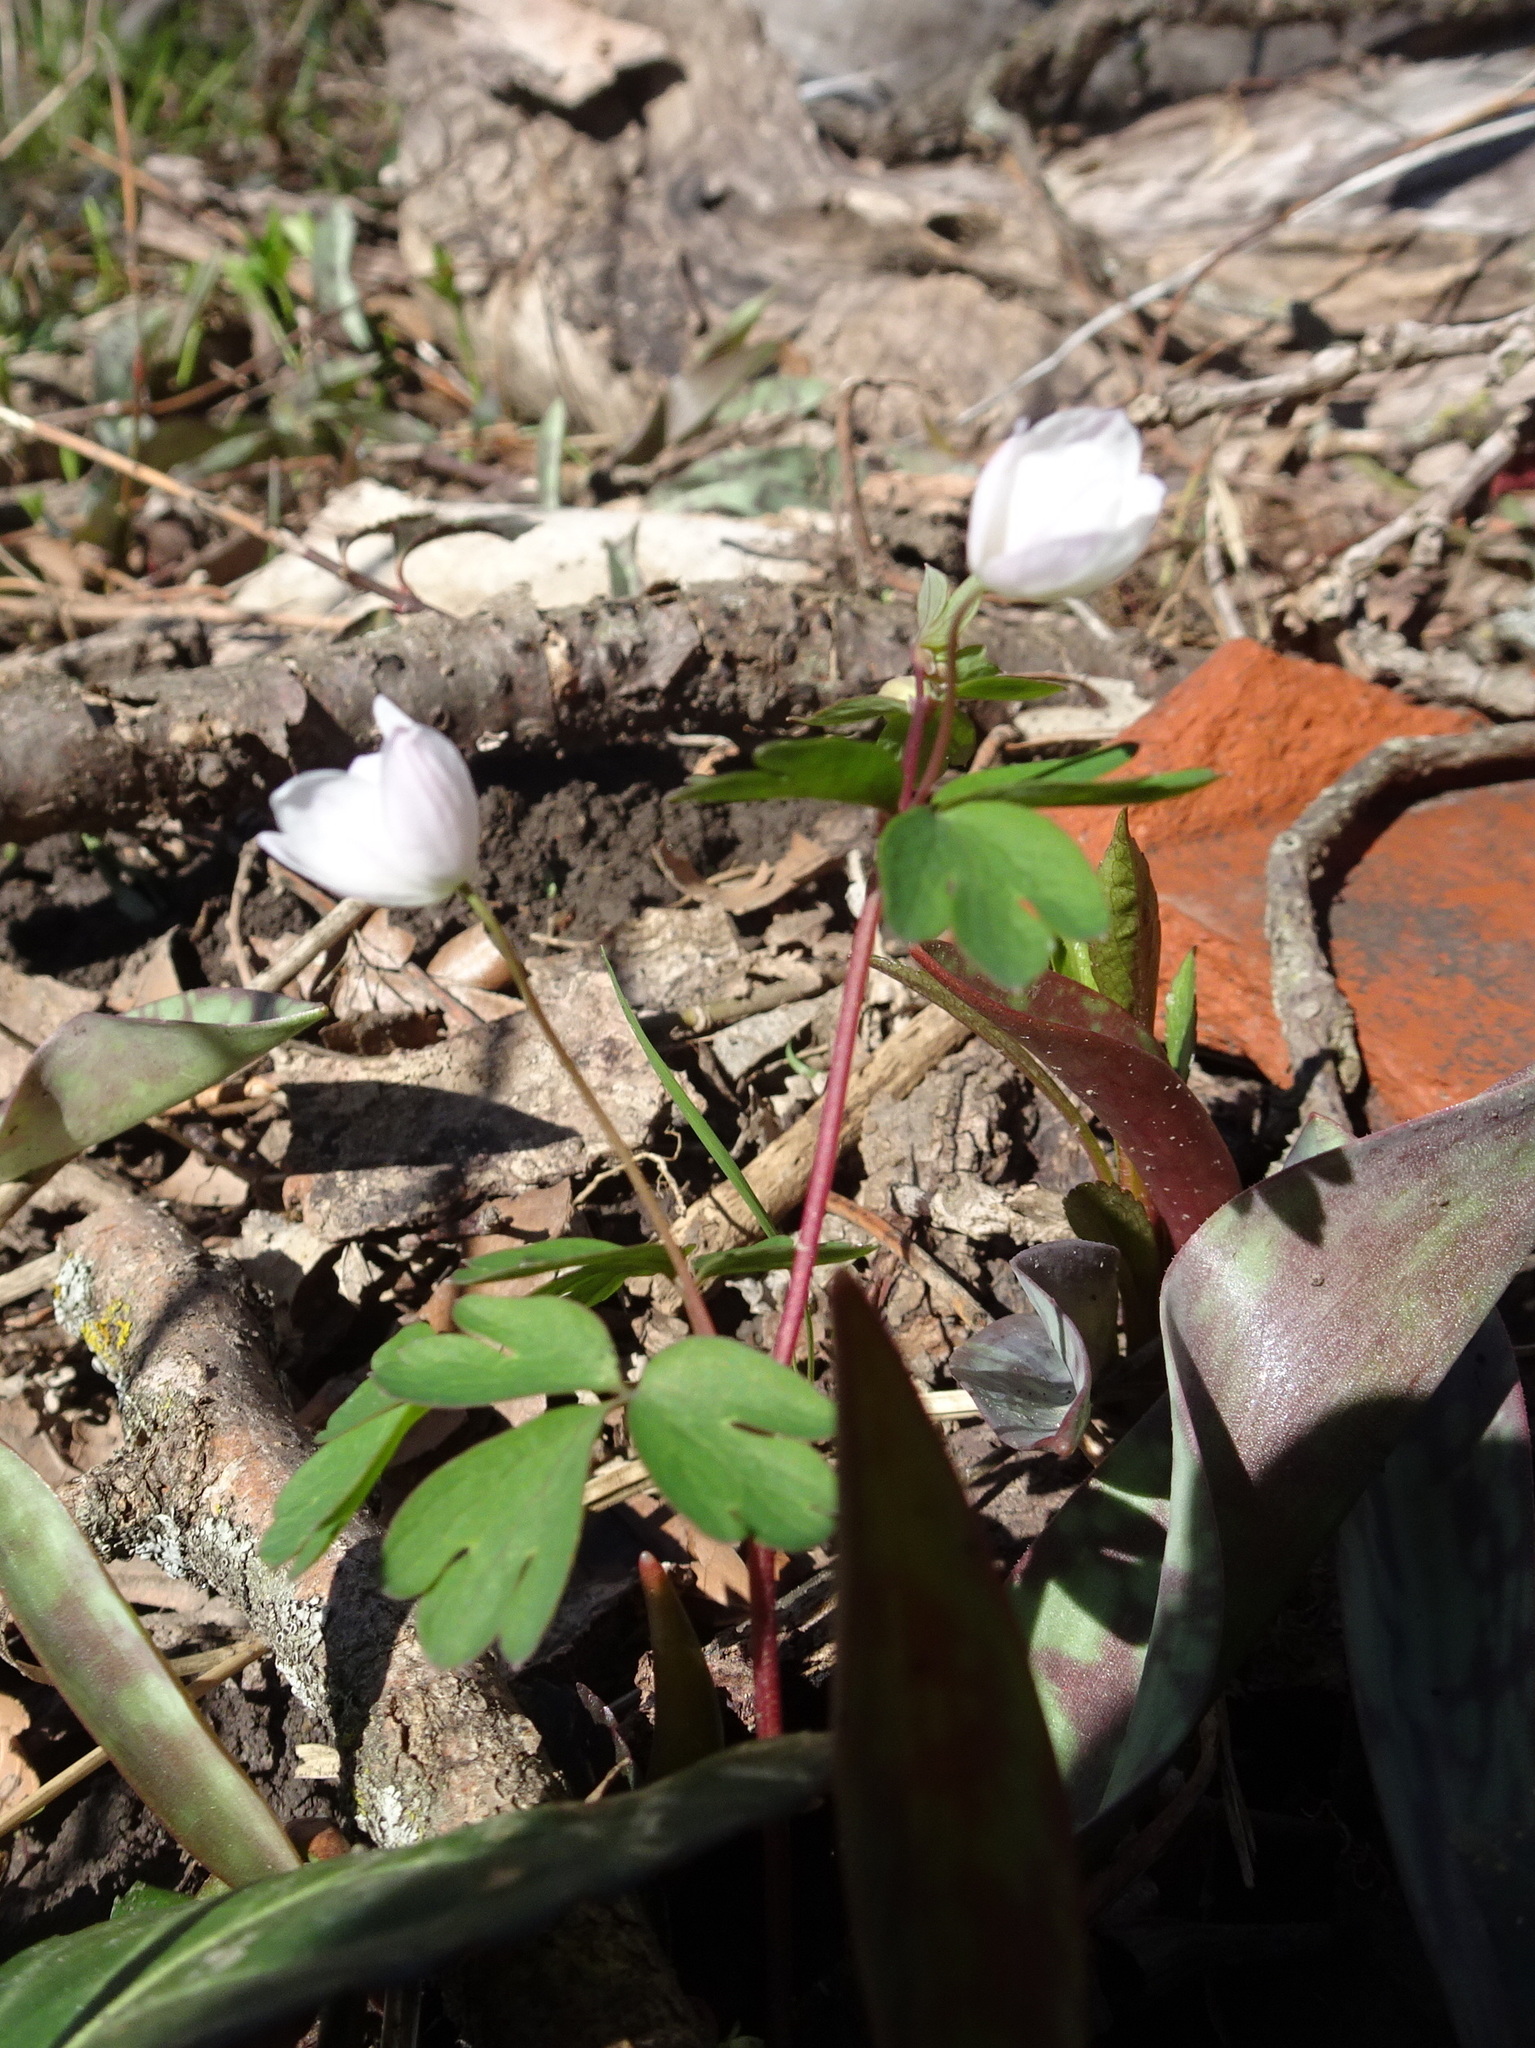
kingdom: Plantae
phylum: Tracheophyta
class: Magnoliopsida
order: Ranunculales
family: Ranunculaceae
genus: Enemion
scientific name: Enemion biternatum
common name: Eastern false rue-anemone
